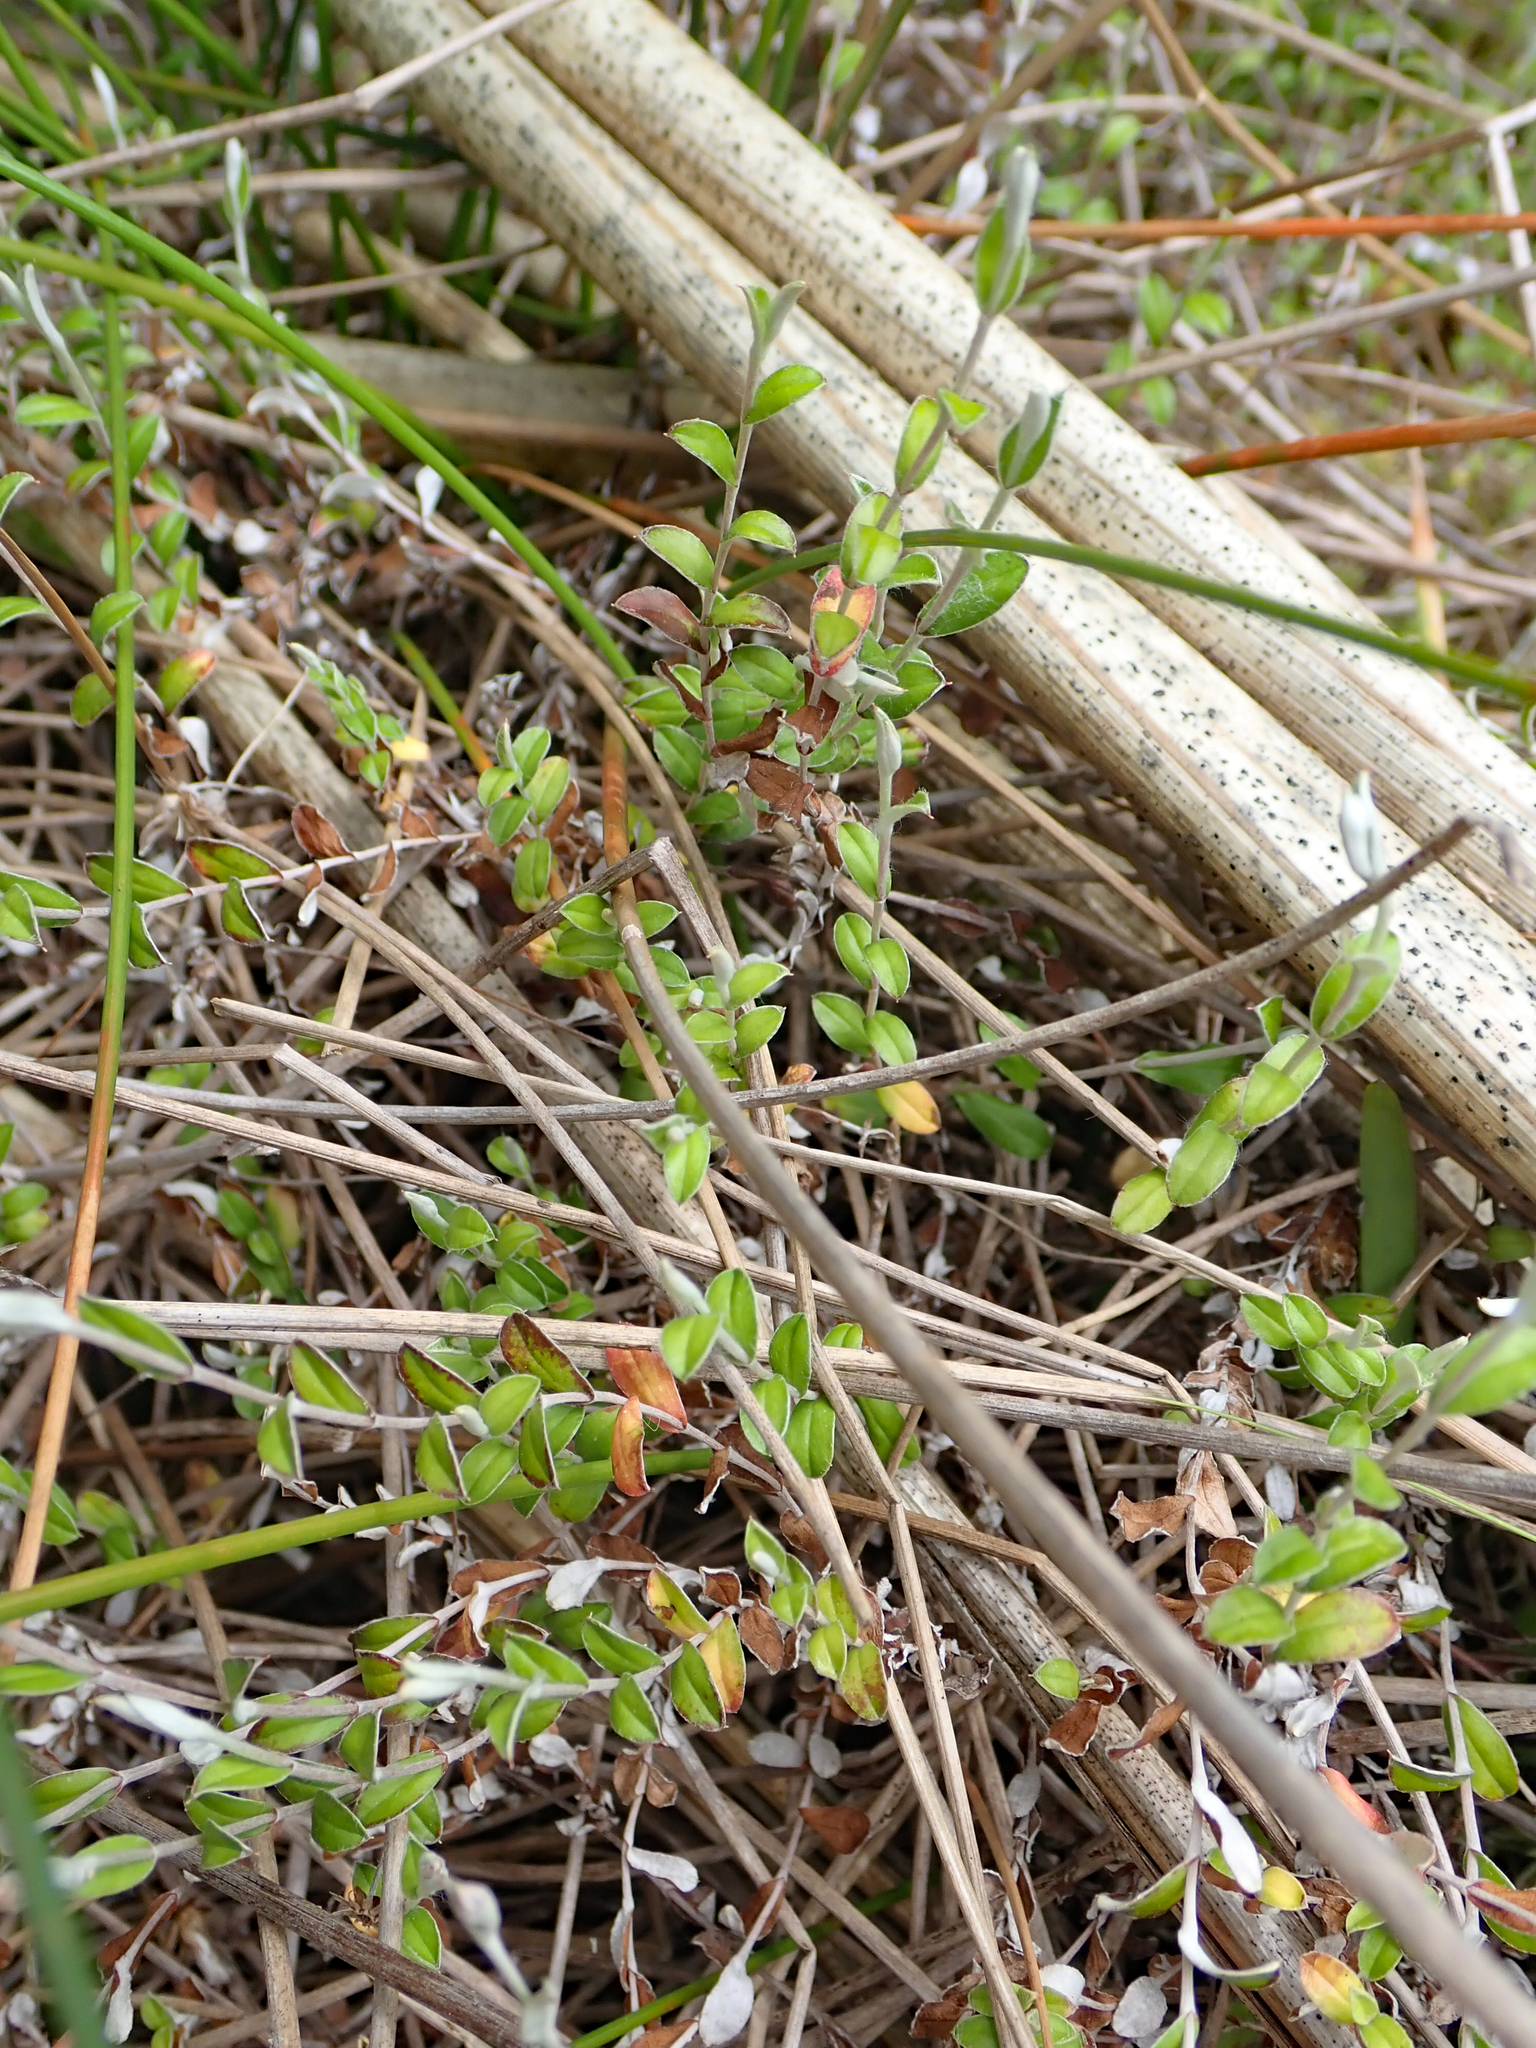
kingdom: Plantae
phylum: Tracheophyta
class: Magnoliopsida
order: Asterales
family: Asteraceae
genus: Helichrysum
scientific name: Helichrysum filicaule
